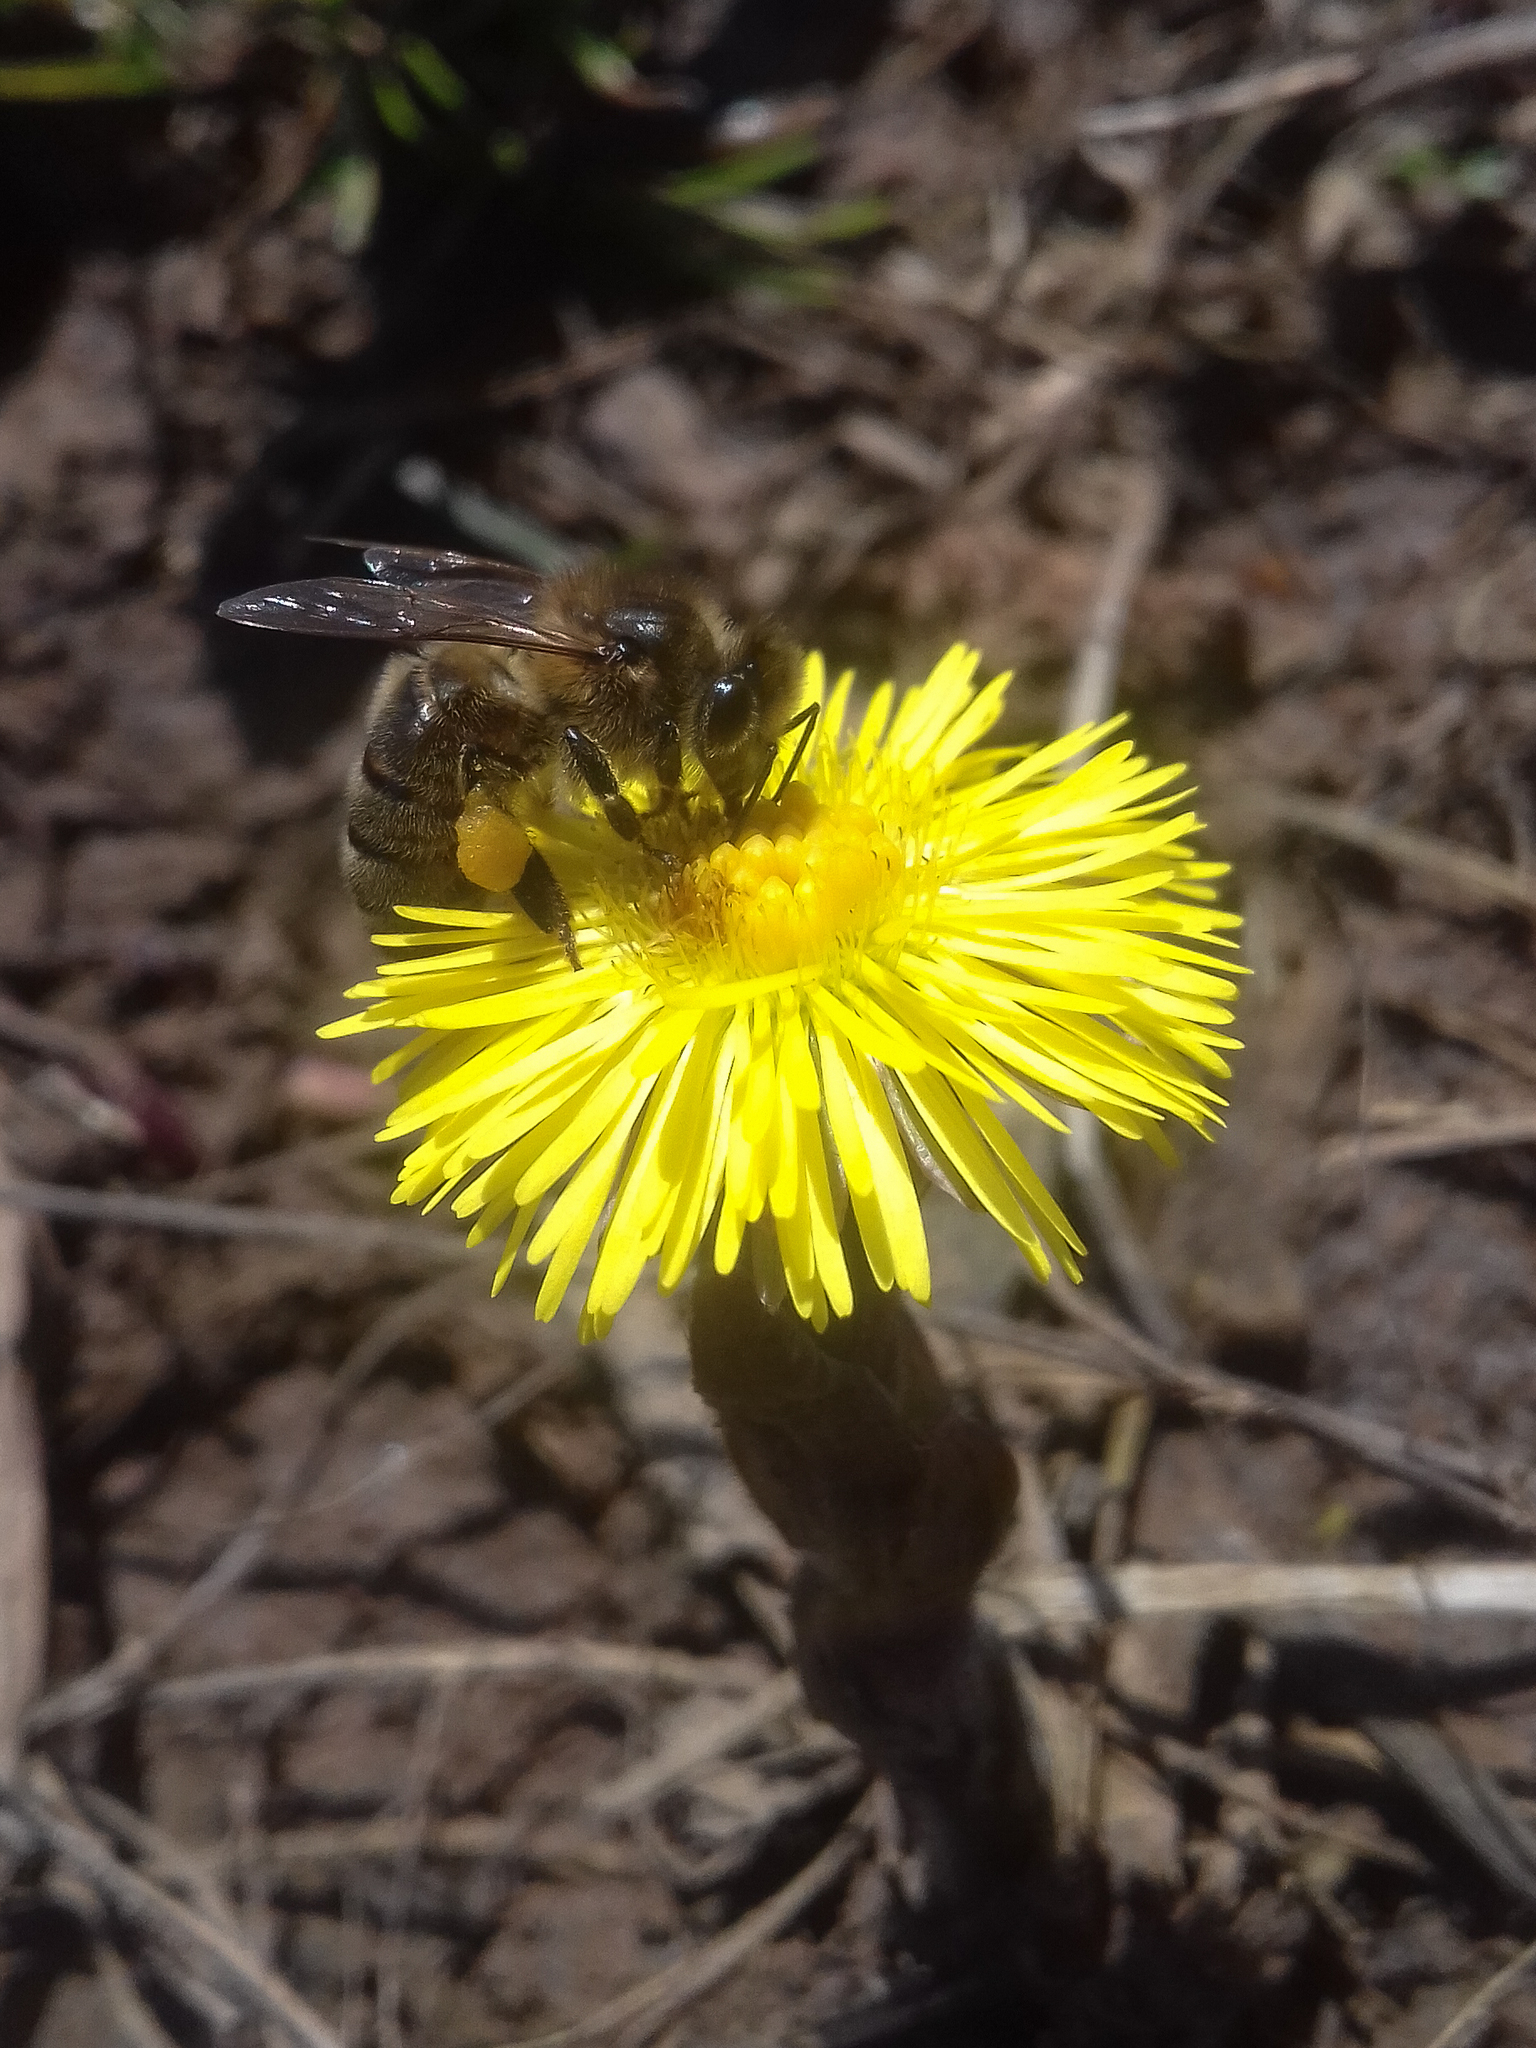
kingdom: Plantae
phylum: Tracheophyta
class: Magnoliopsida
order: Asterales
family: Asteraceae
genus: Tussilago
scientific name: Tussilago farfara
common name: Coltsfoot
